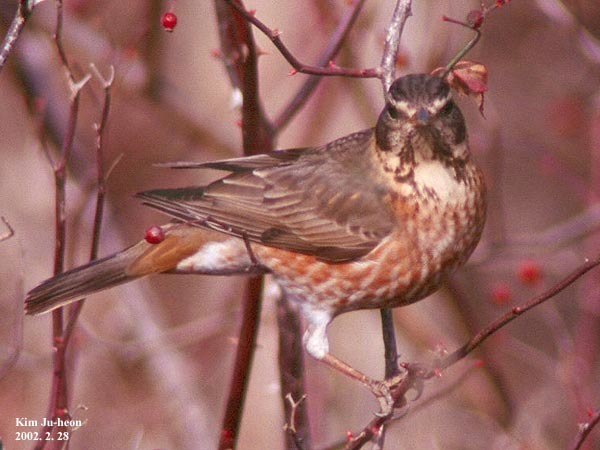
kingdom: Animalia
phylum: Chordata
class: Aves
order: Passeriformes
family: Turdidae
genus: Turdus
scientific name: Turdus naumanni
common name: Naumann's thrush
